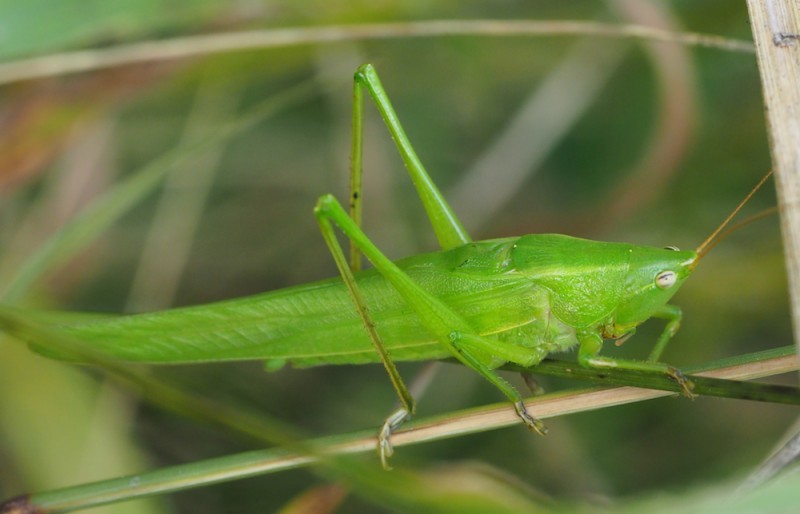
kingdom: Animalia
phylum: Arthropoda
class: Insecta
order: Orthoptera
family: Tettigoniidae
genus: Ruspolia
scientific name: Ruspolia nitidula
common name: Large conehead
